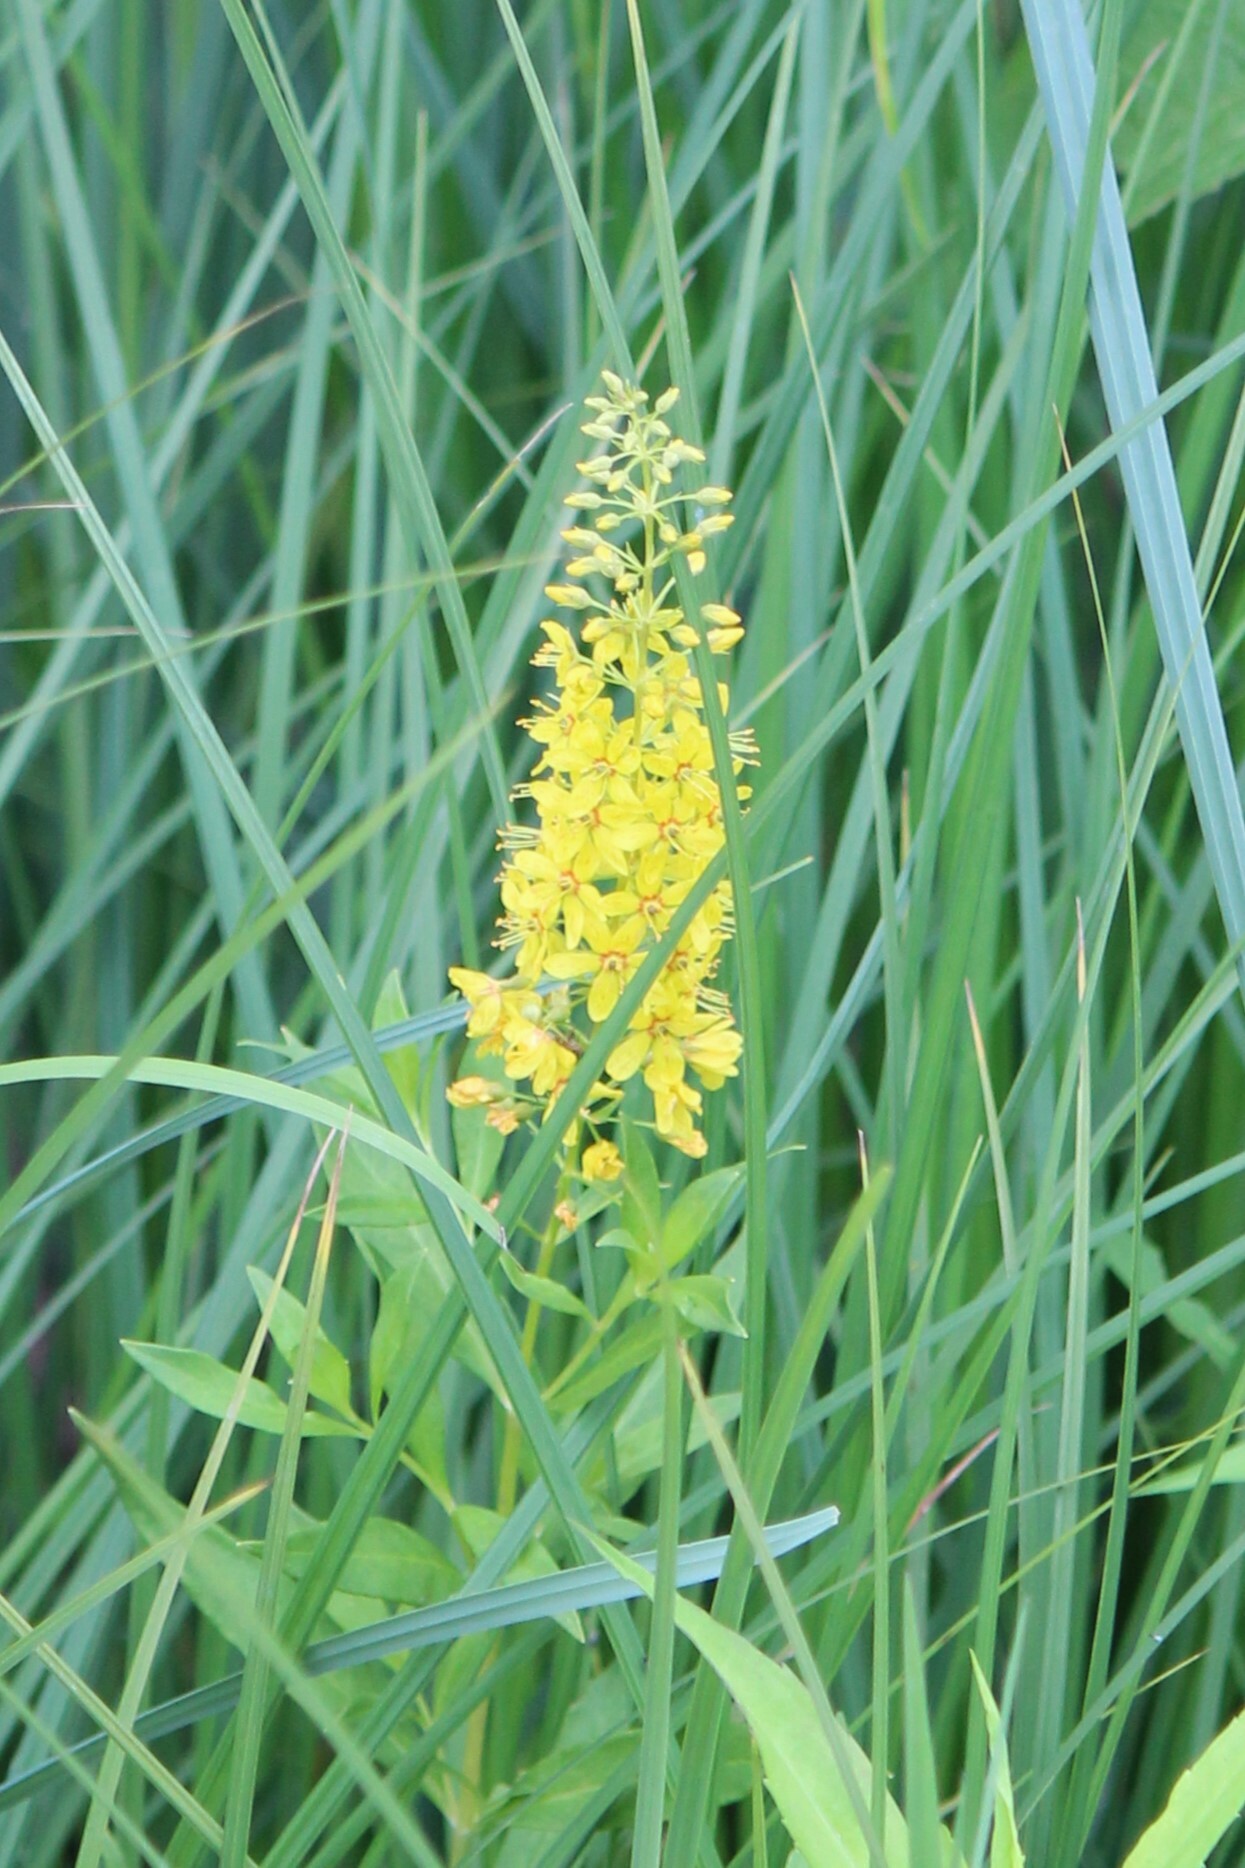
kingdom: Plantae
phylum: Tracheophyta
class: Magnoliopsida
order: Ericales
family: Primulaceae
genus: Lysimachia
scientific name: Lysimachia terrestris
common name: Lake loosestrife
